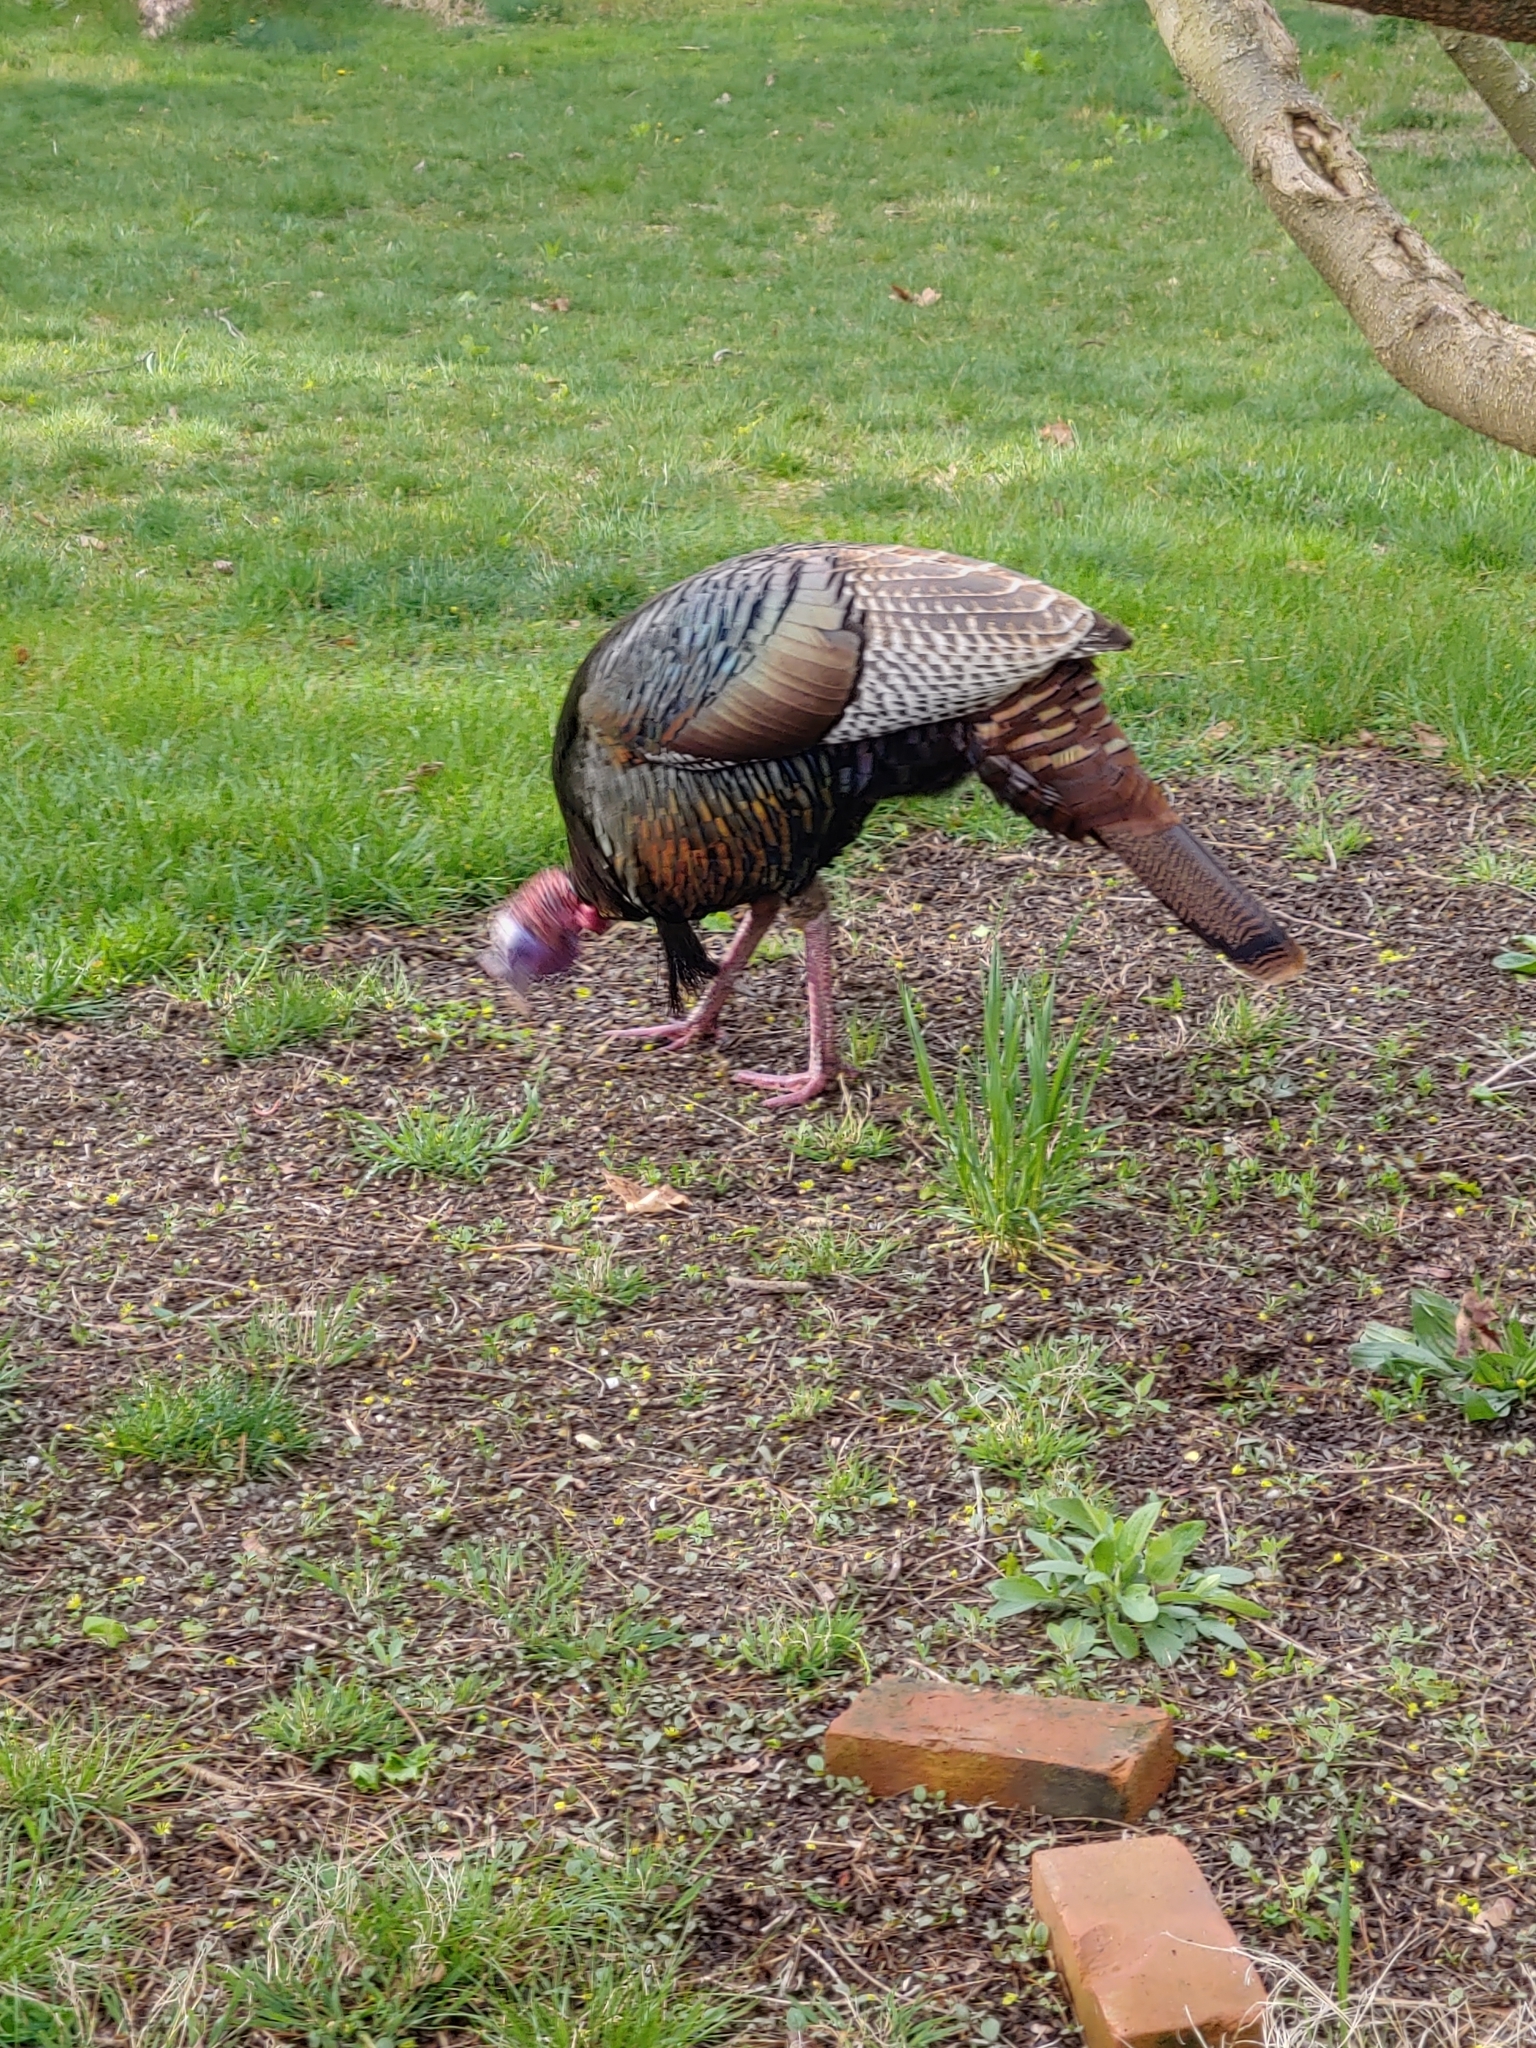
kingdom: Animalia
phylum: Chordata
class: Aves
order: Galliformes
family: Phasianidae
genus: Meleagris
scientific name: Meleagris gallopavo
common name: Wild turkey
